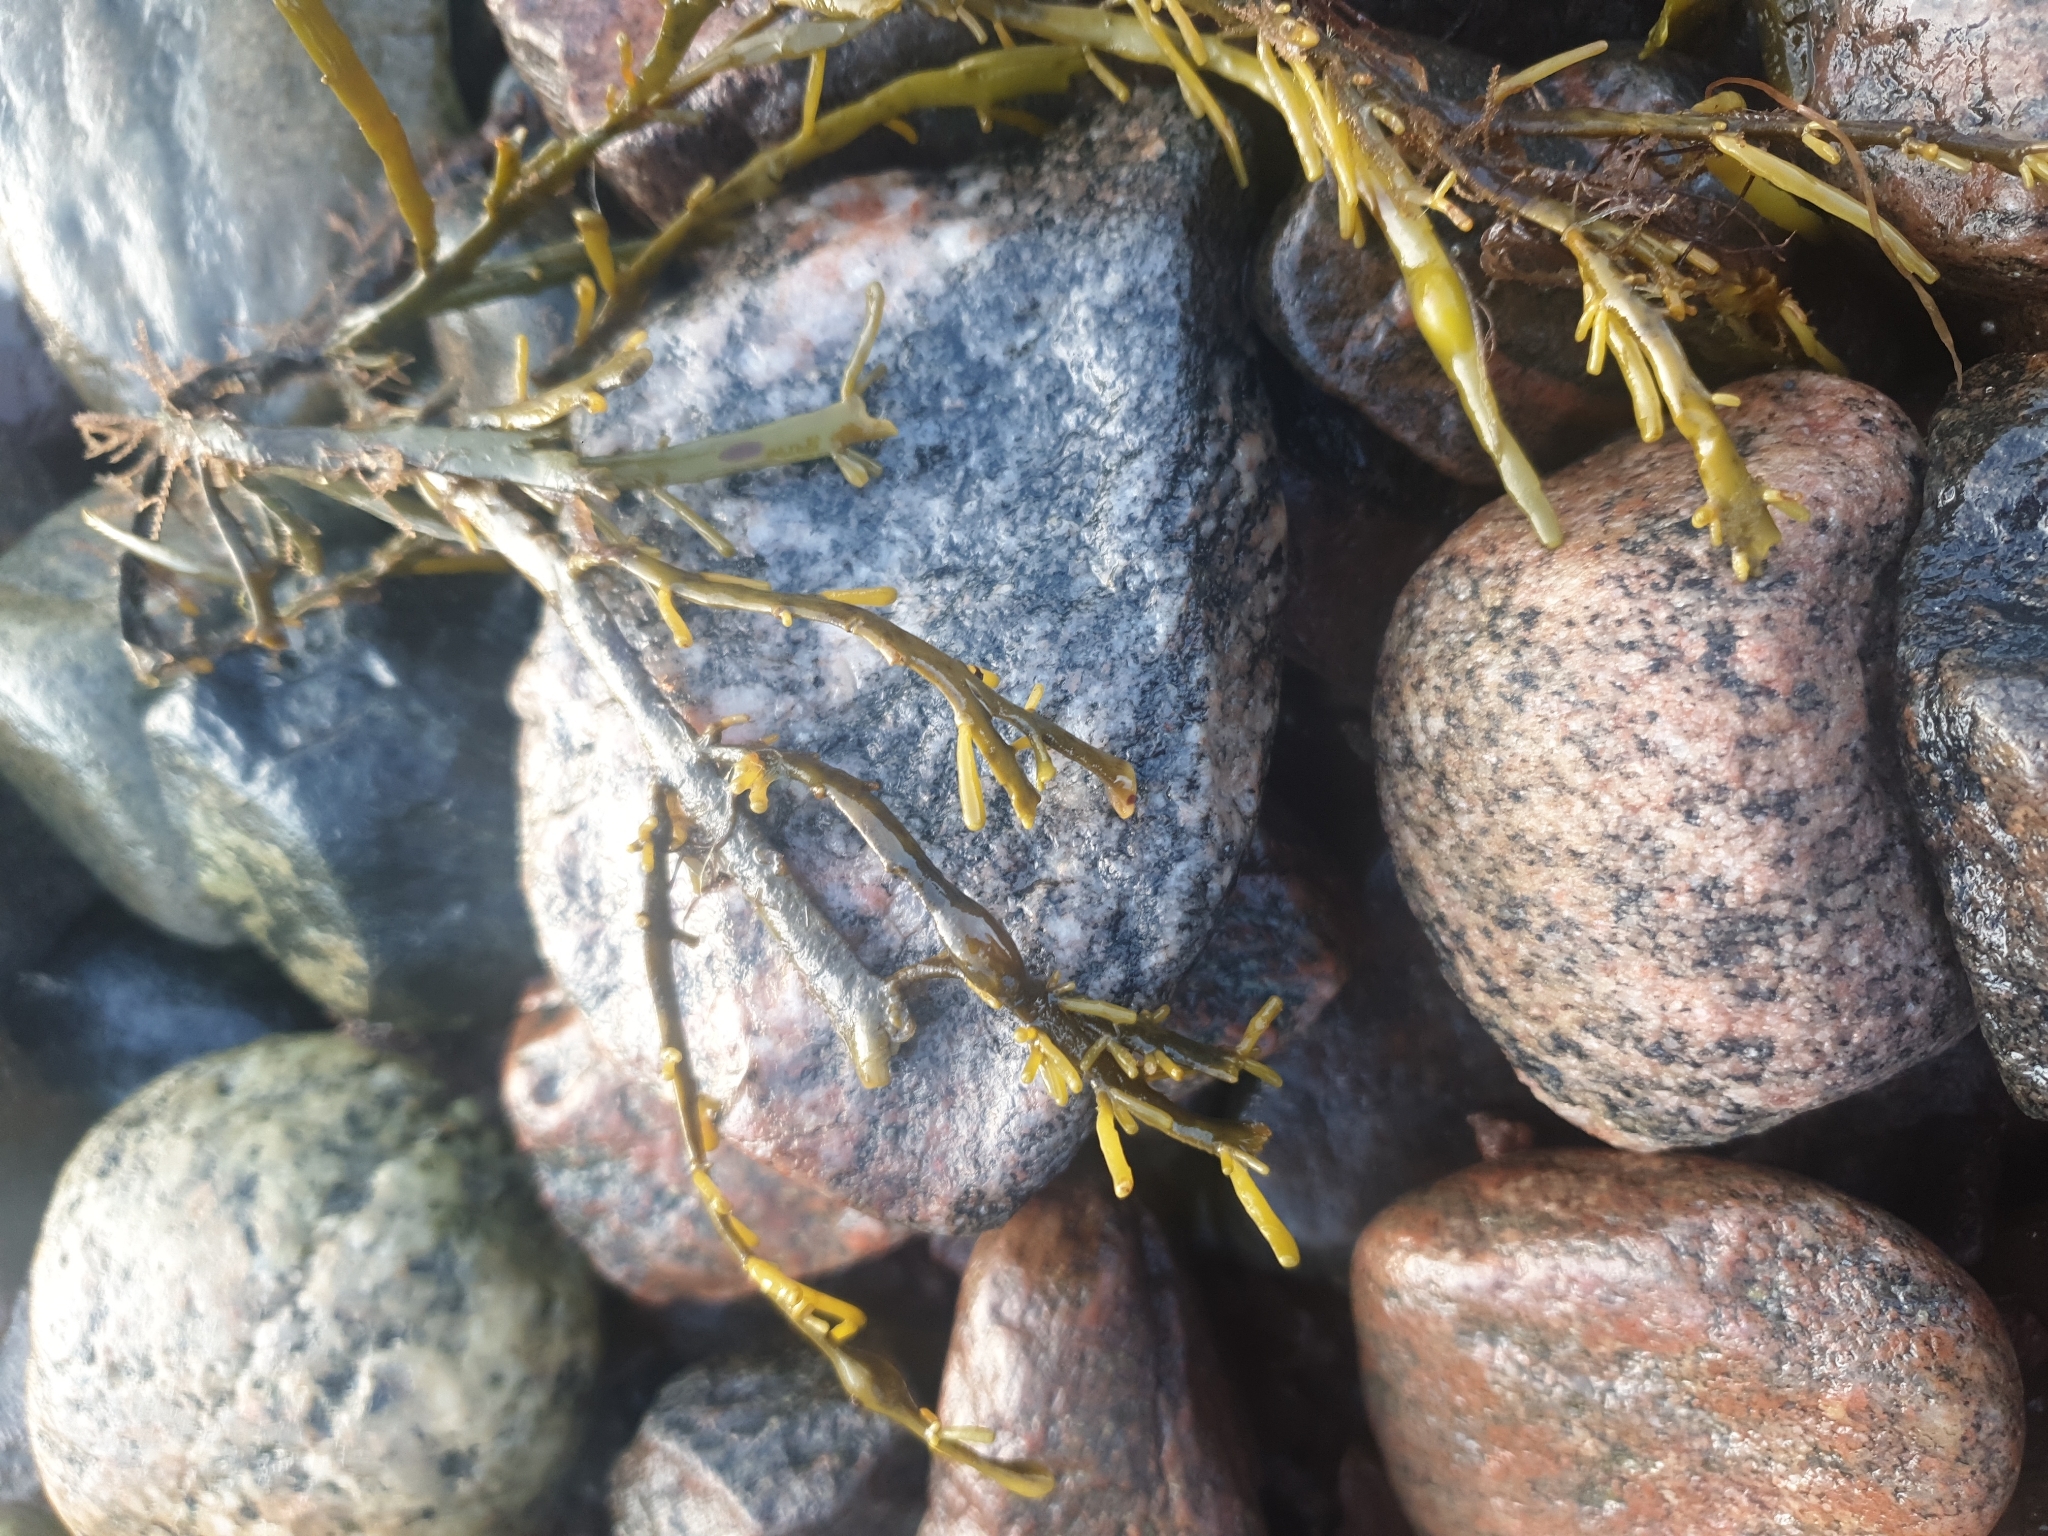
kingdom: Chromista
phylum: Ochrophyta
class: Phaeophyceae
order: Fucales
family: Fucaceae
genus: Ascophyllum
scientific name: Ascophyllum nodosum
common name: Knotted wrack
